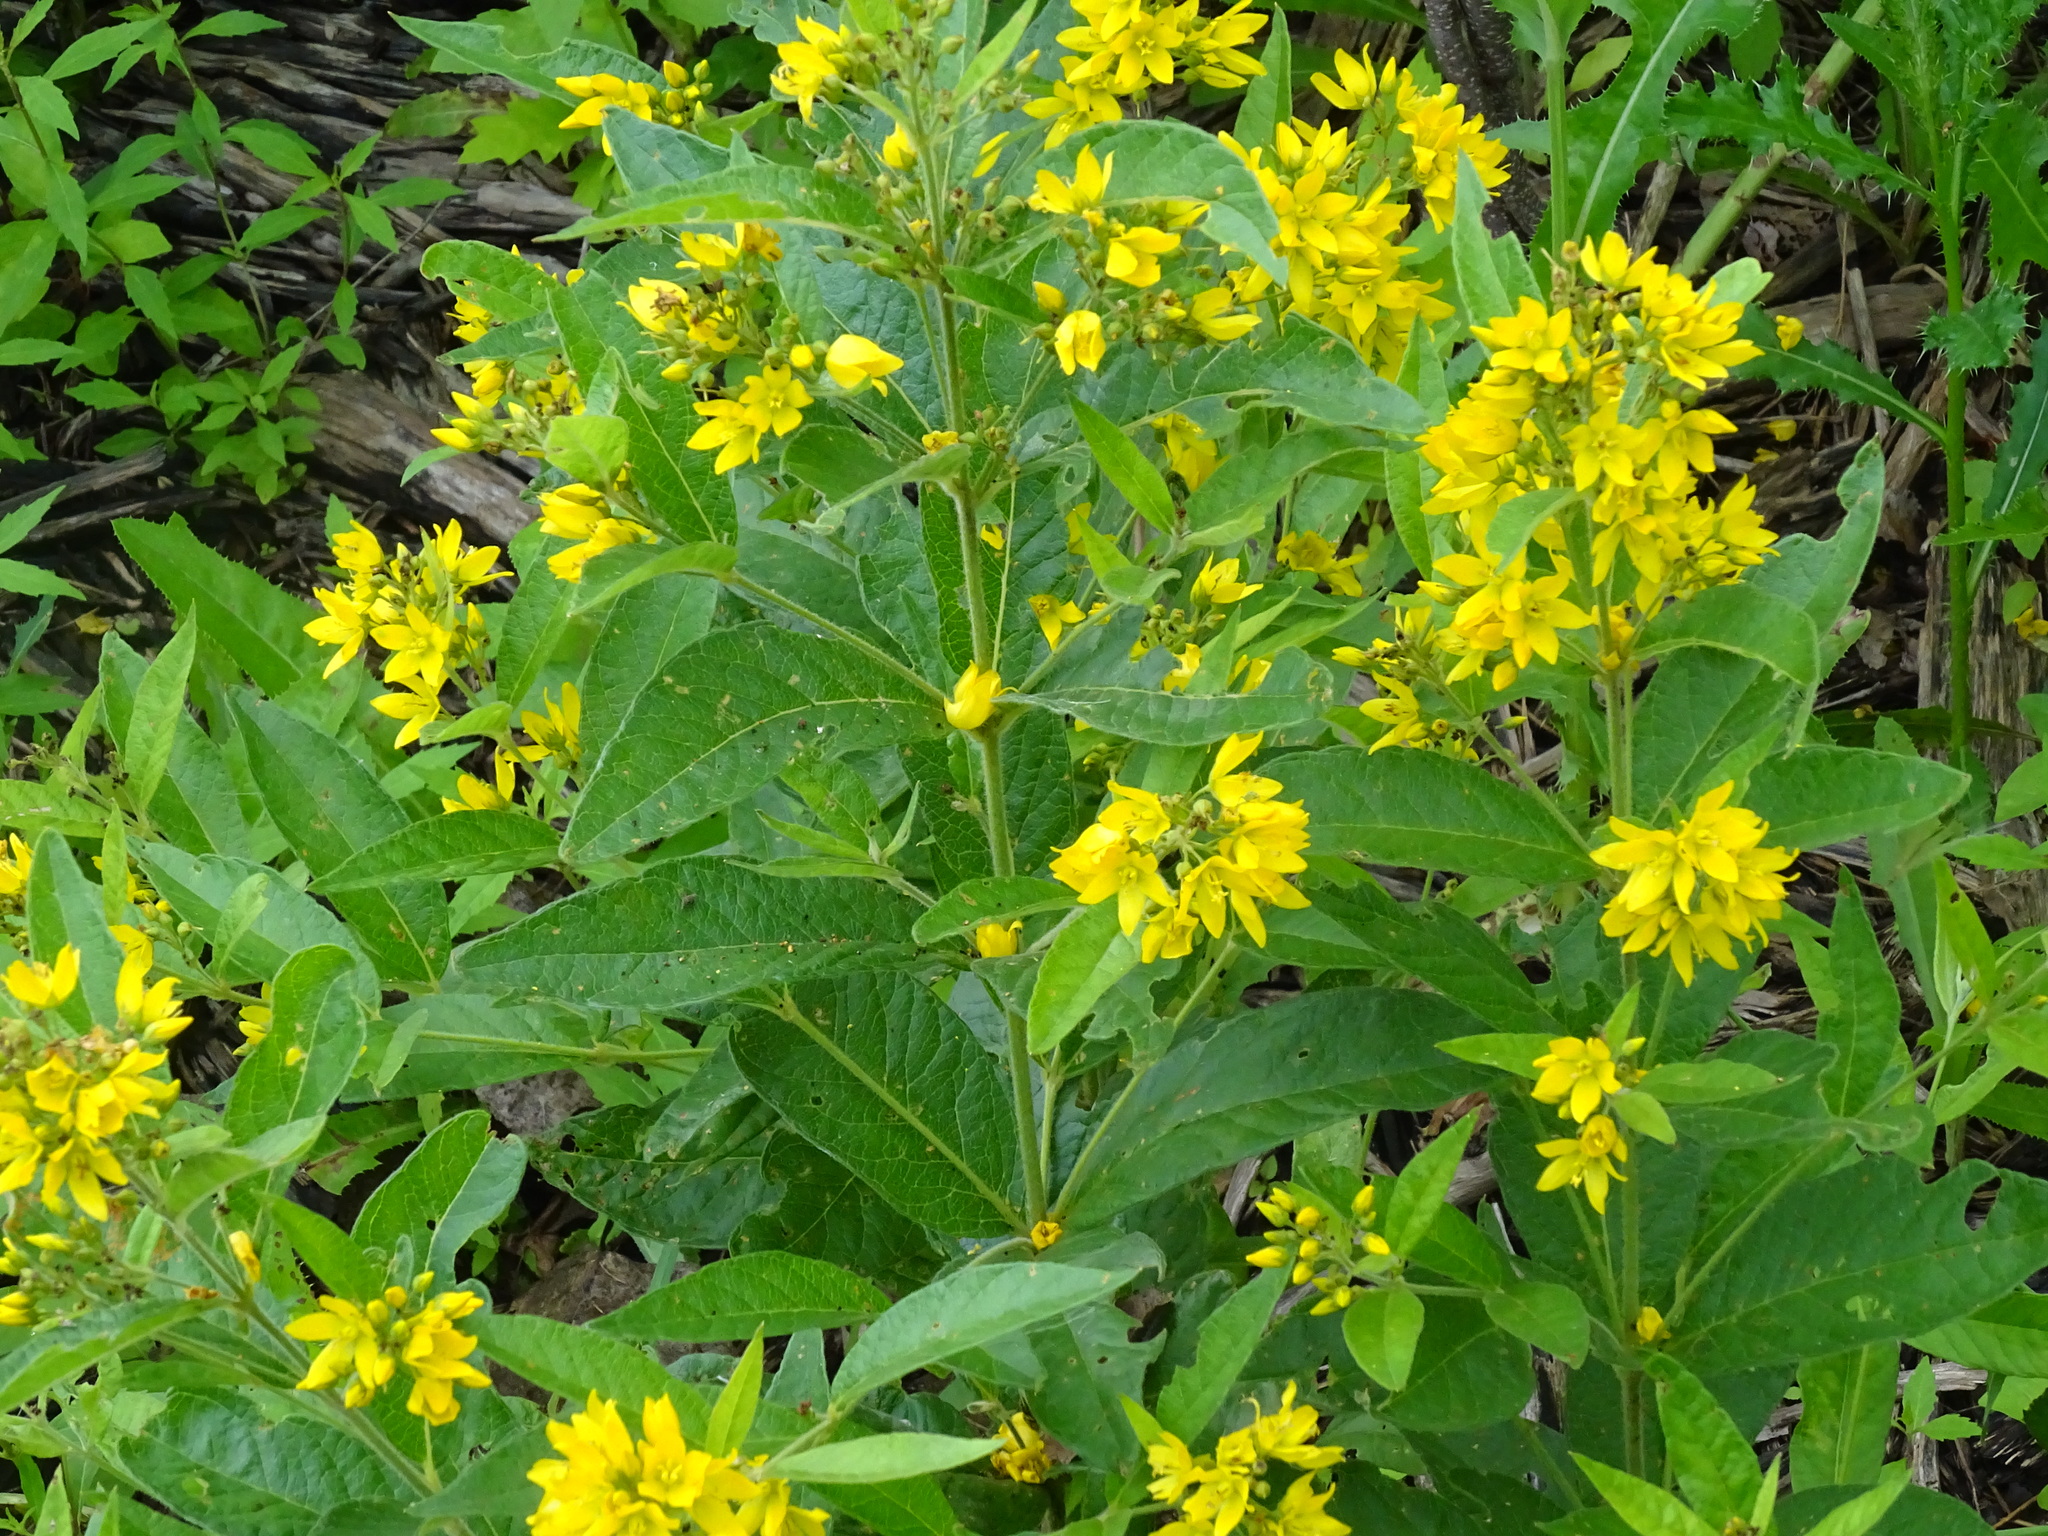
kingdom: Plantae
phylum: Tracheophyta
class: Magnoliopsida
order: Ericales
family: Primulaceae
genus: Lysimachia
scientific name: Lysimachia vulgaris
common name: Yellow loosestrife
